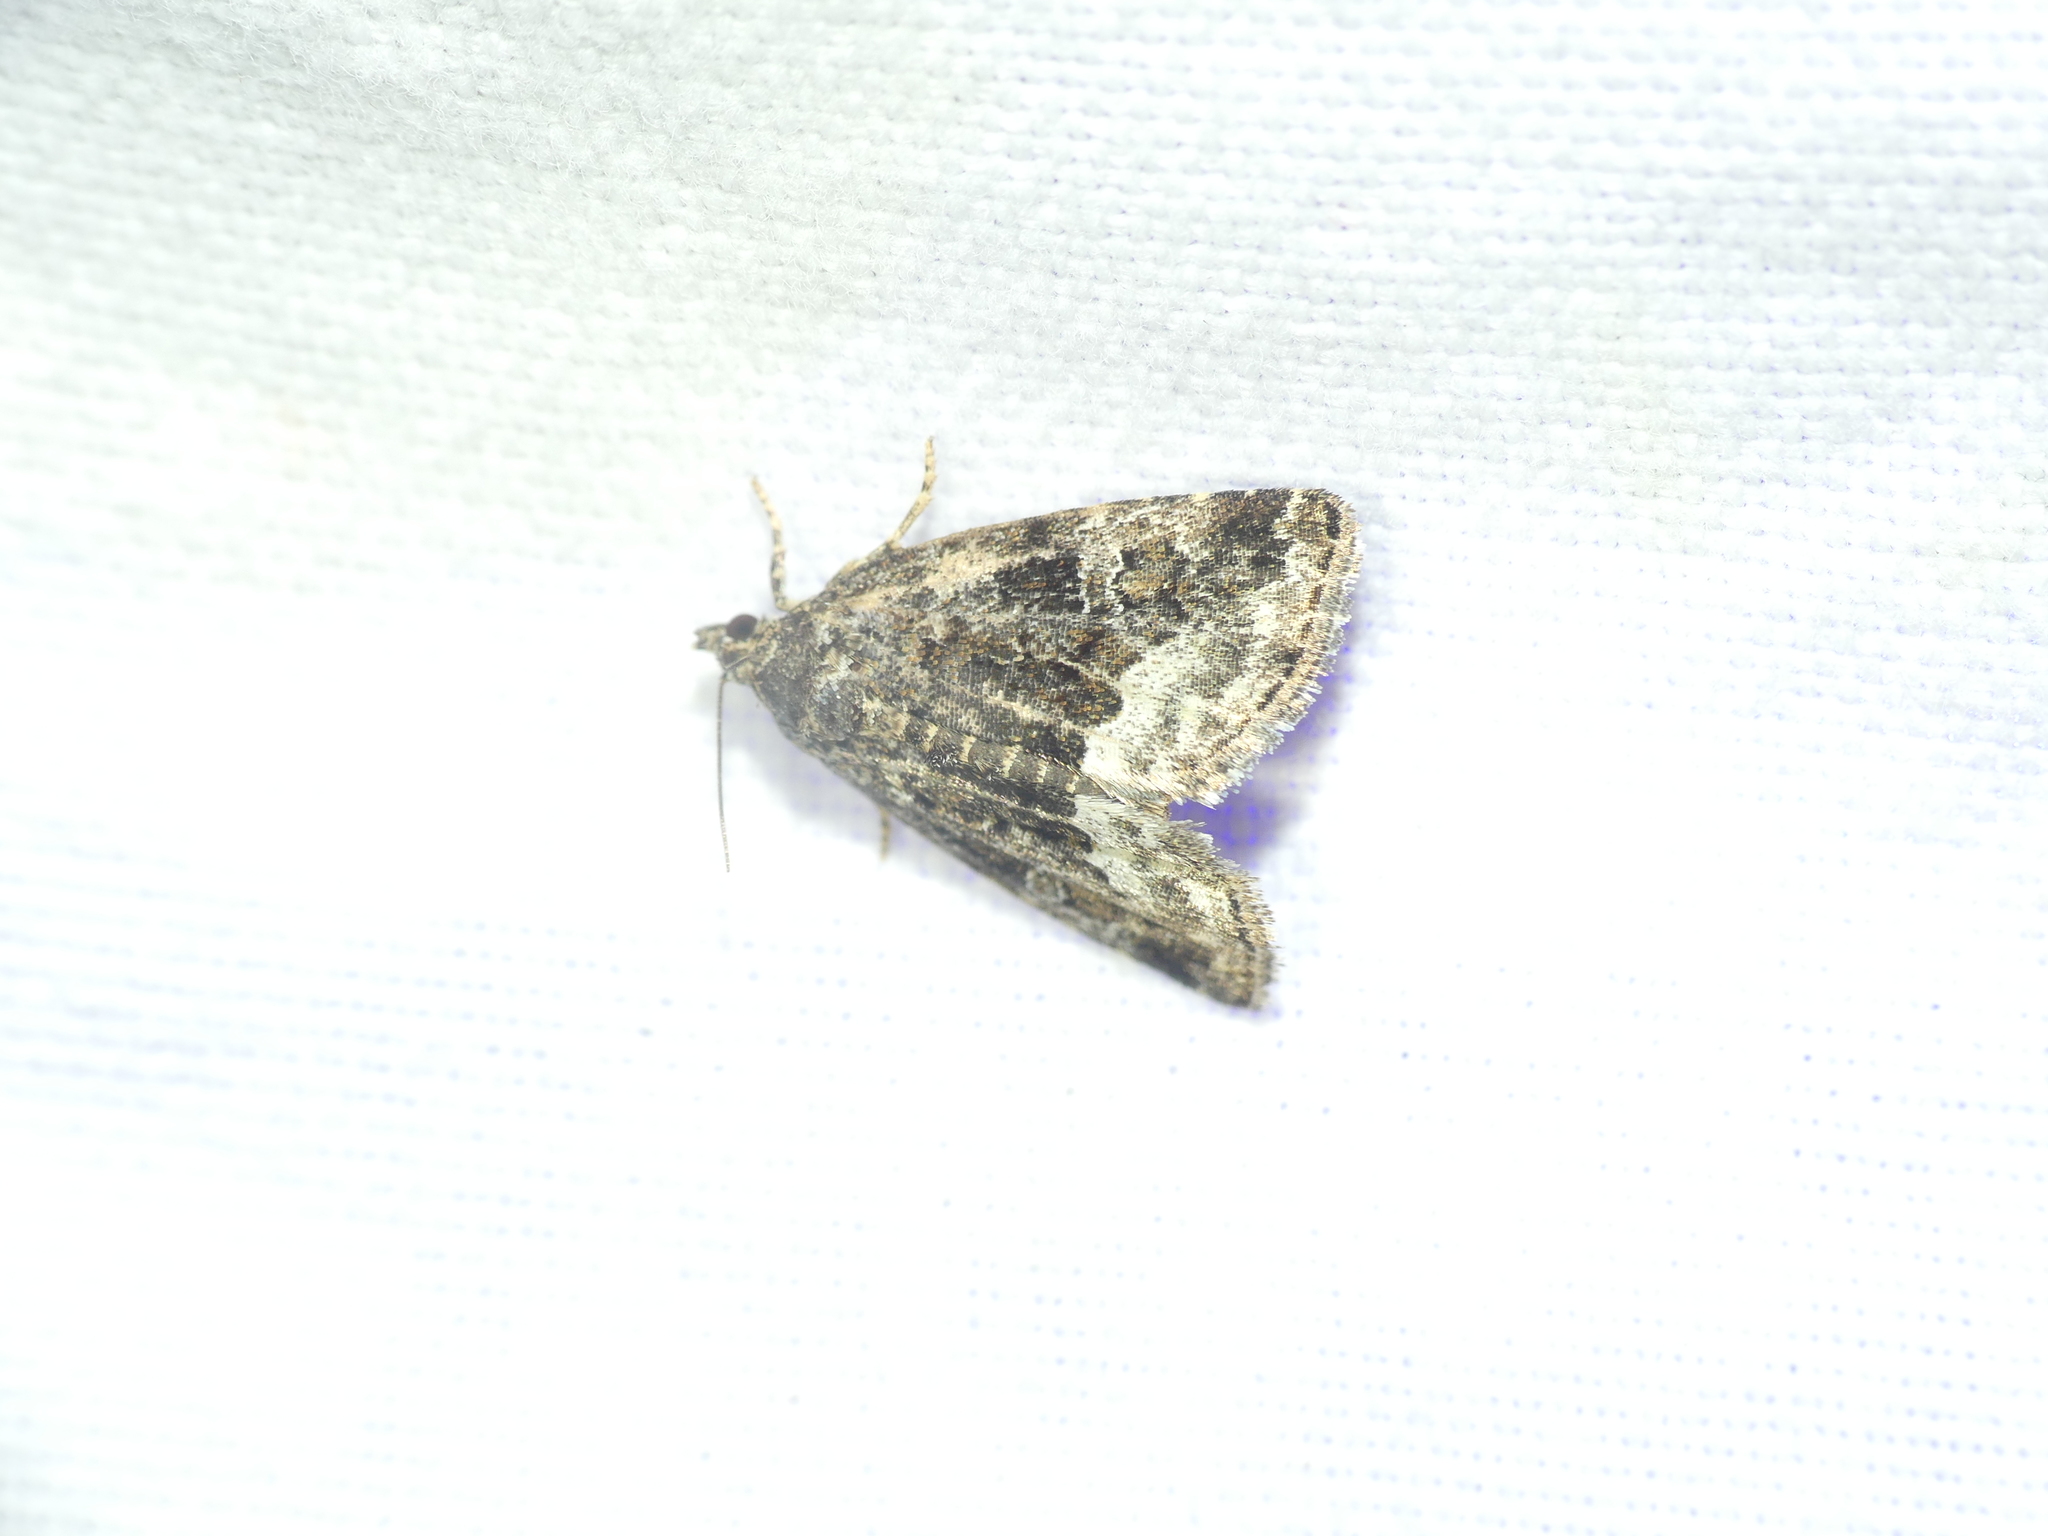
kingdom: Animalia
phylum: Arthropoda
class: Insecta
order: Lepidoptera
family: Noctuidae
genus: Deltote
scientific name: Deltote pygarga
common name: Marbled white spot
